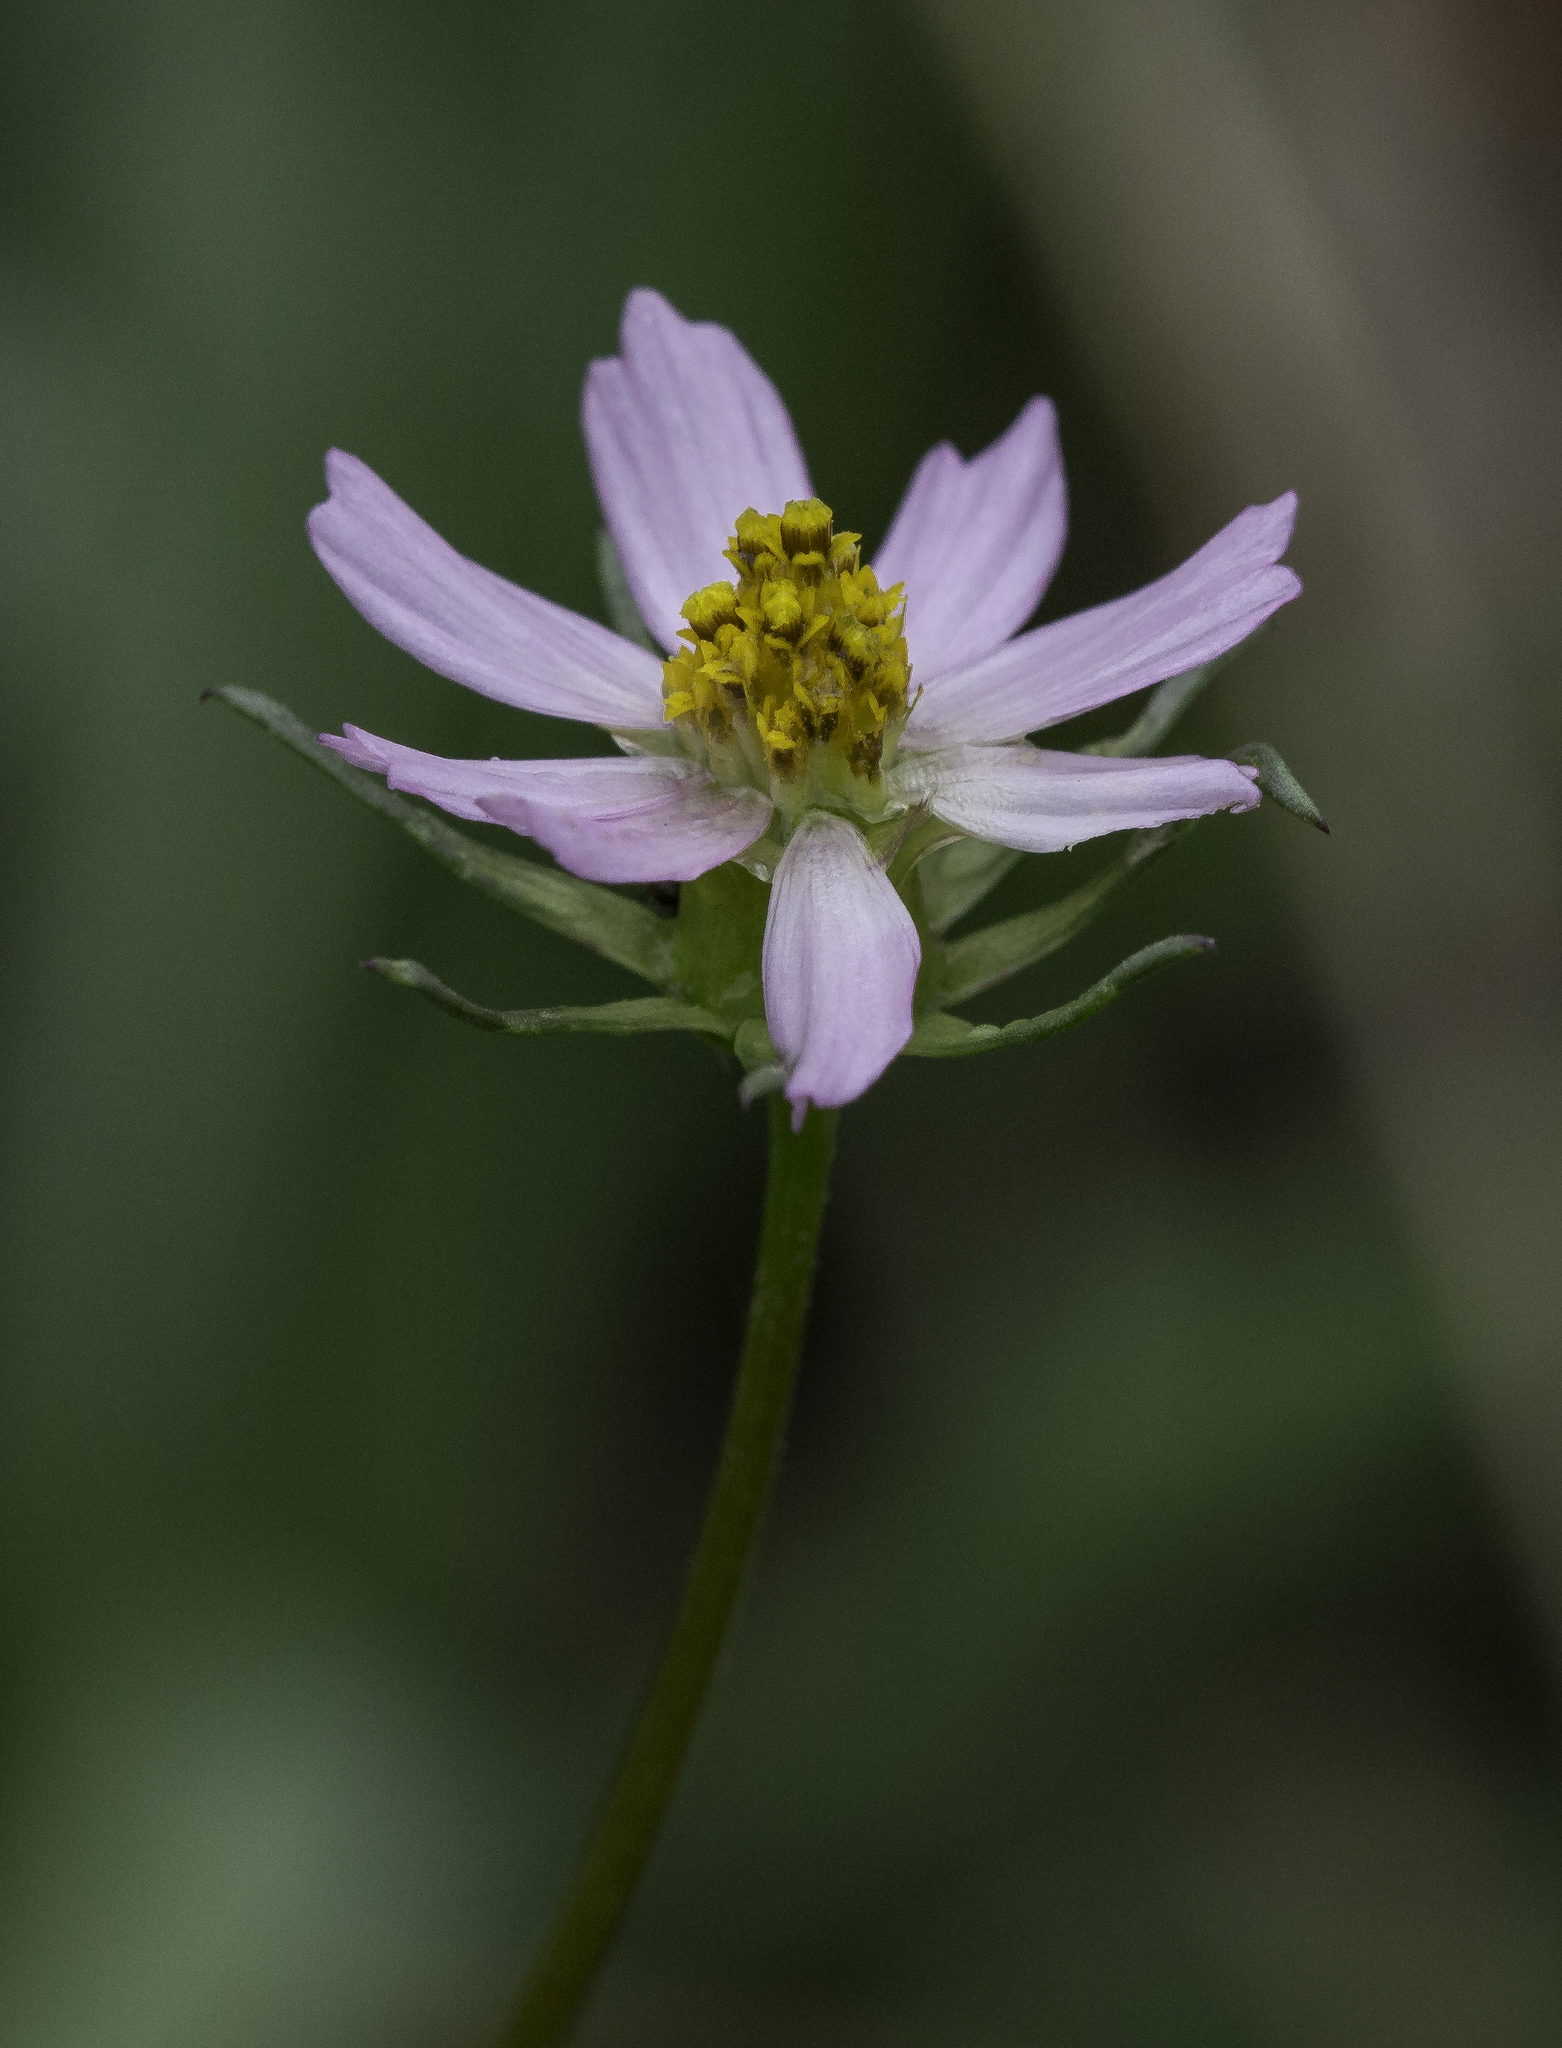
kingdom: Plantae
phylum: Tracheophyta
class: Magnoliopsida
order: Asterales
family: Asteraceae
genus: Cosmos
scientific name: Cosmos parviflorus
